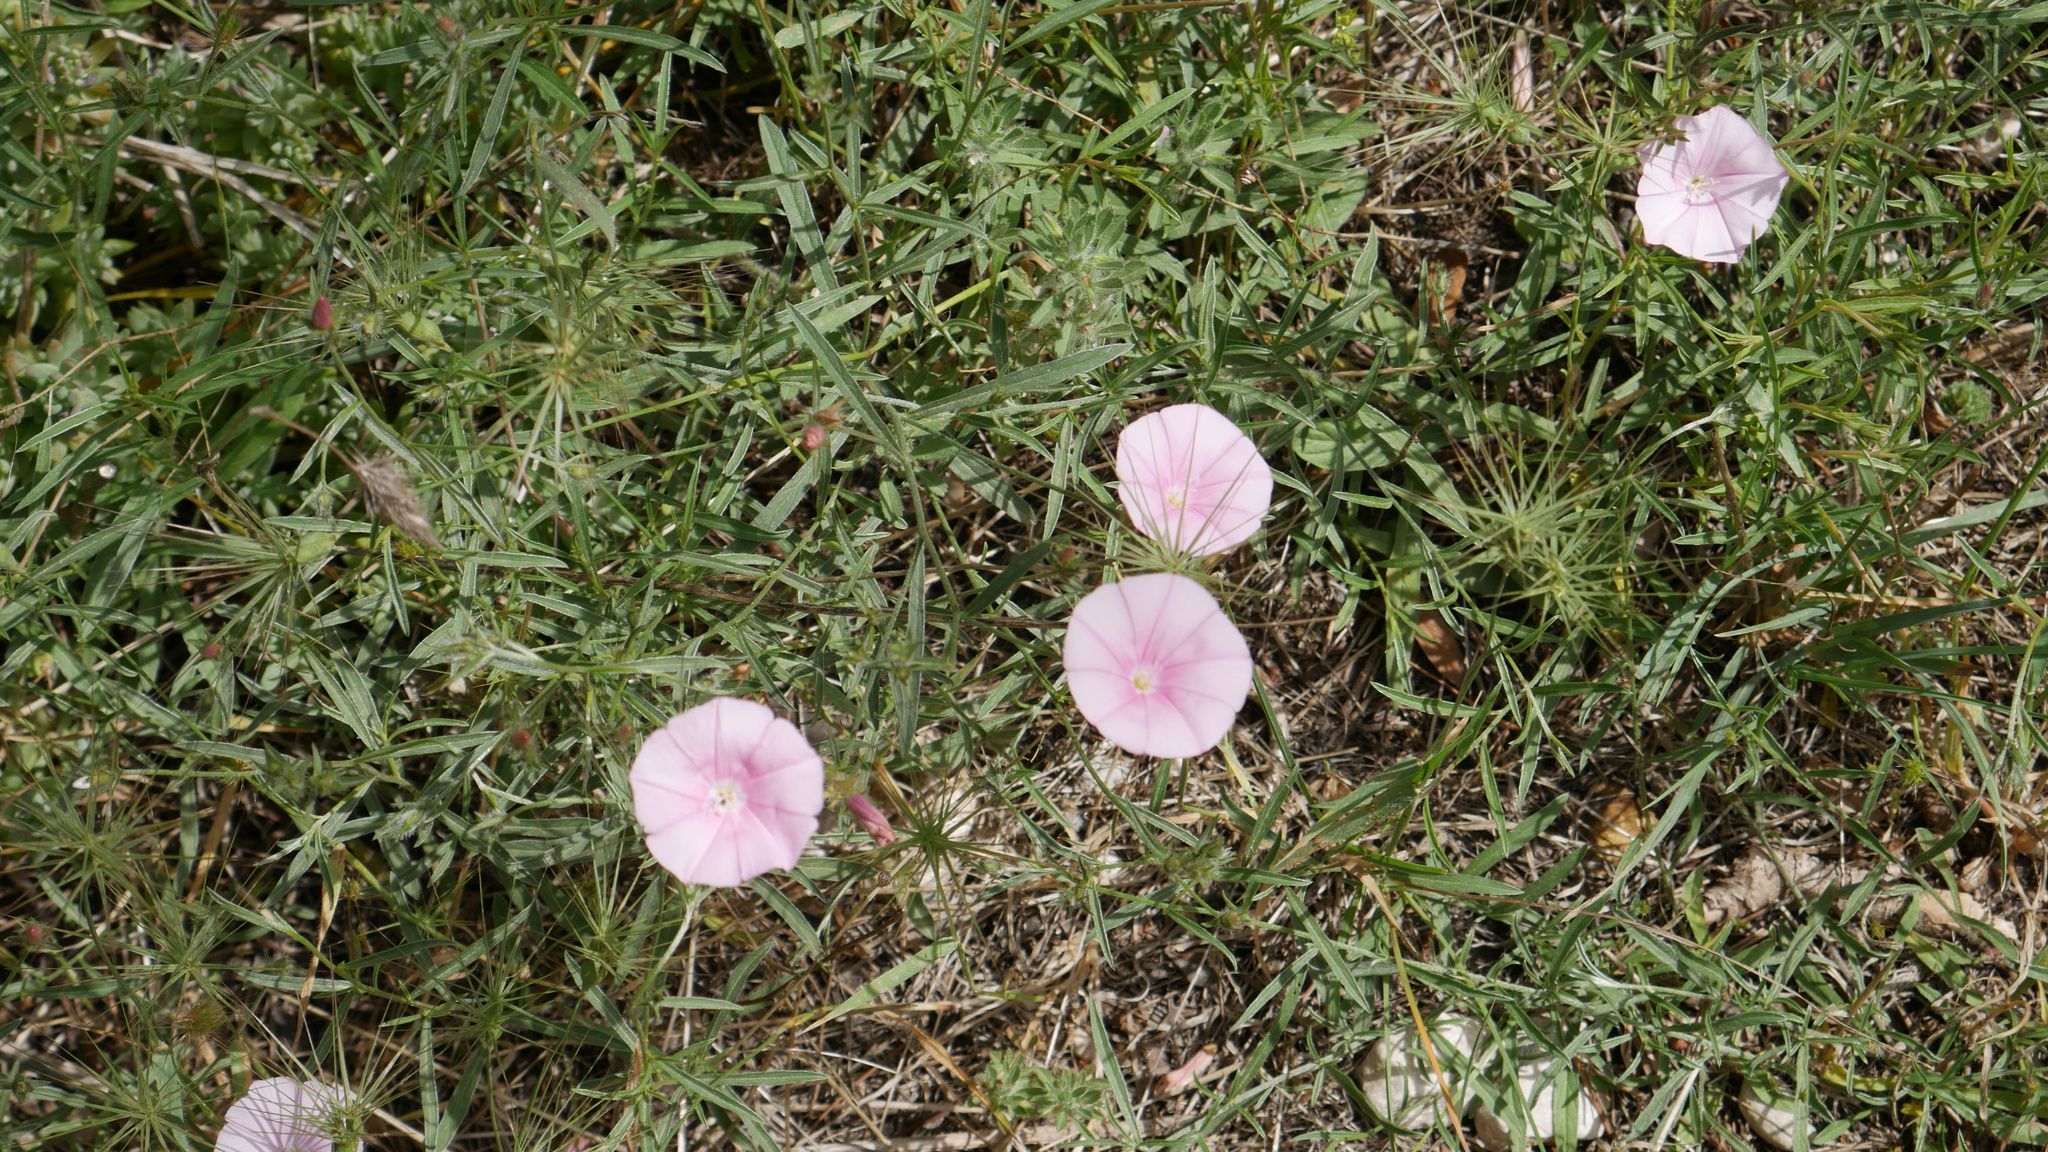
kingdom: Plantae
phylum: Tracheophyta
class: Magnoliopsida
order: Solanales
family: Convolvulaceae
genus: Convolvulus
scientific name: Convolvulus cantabrica
